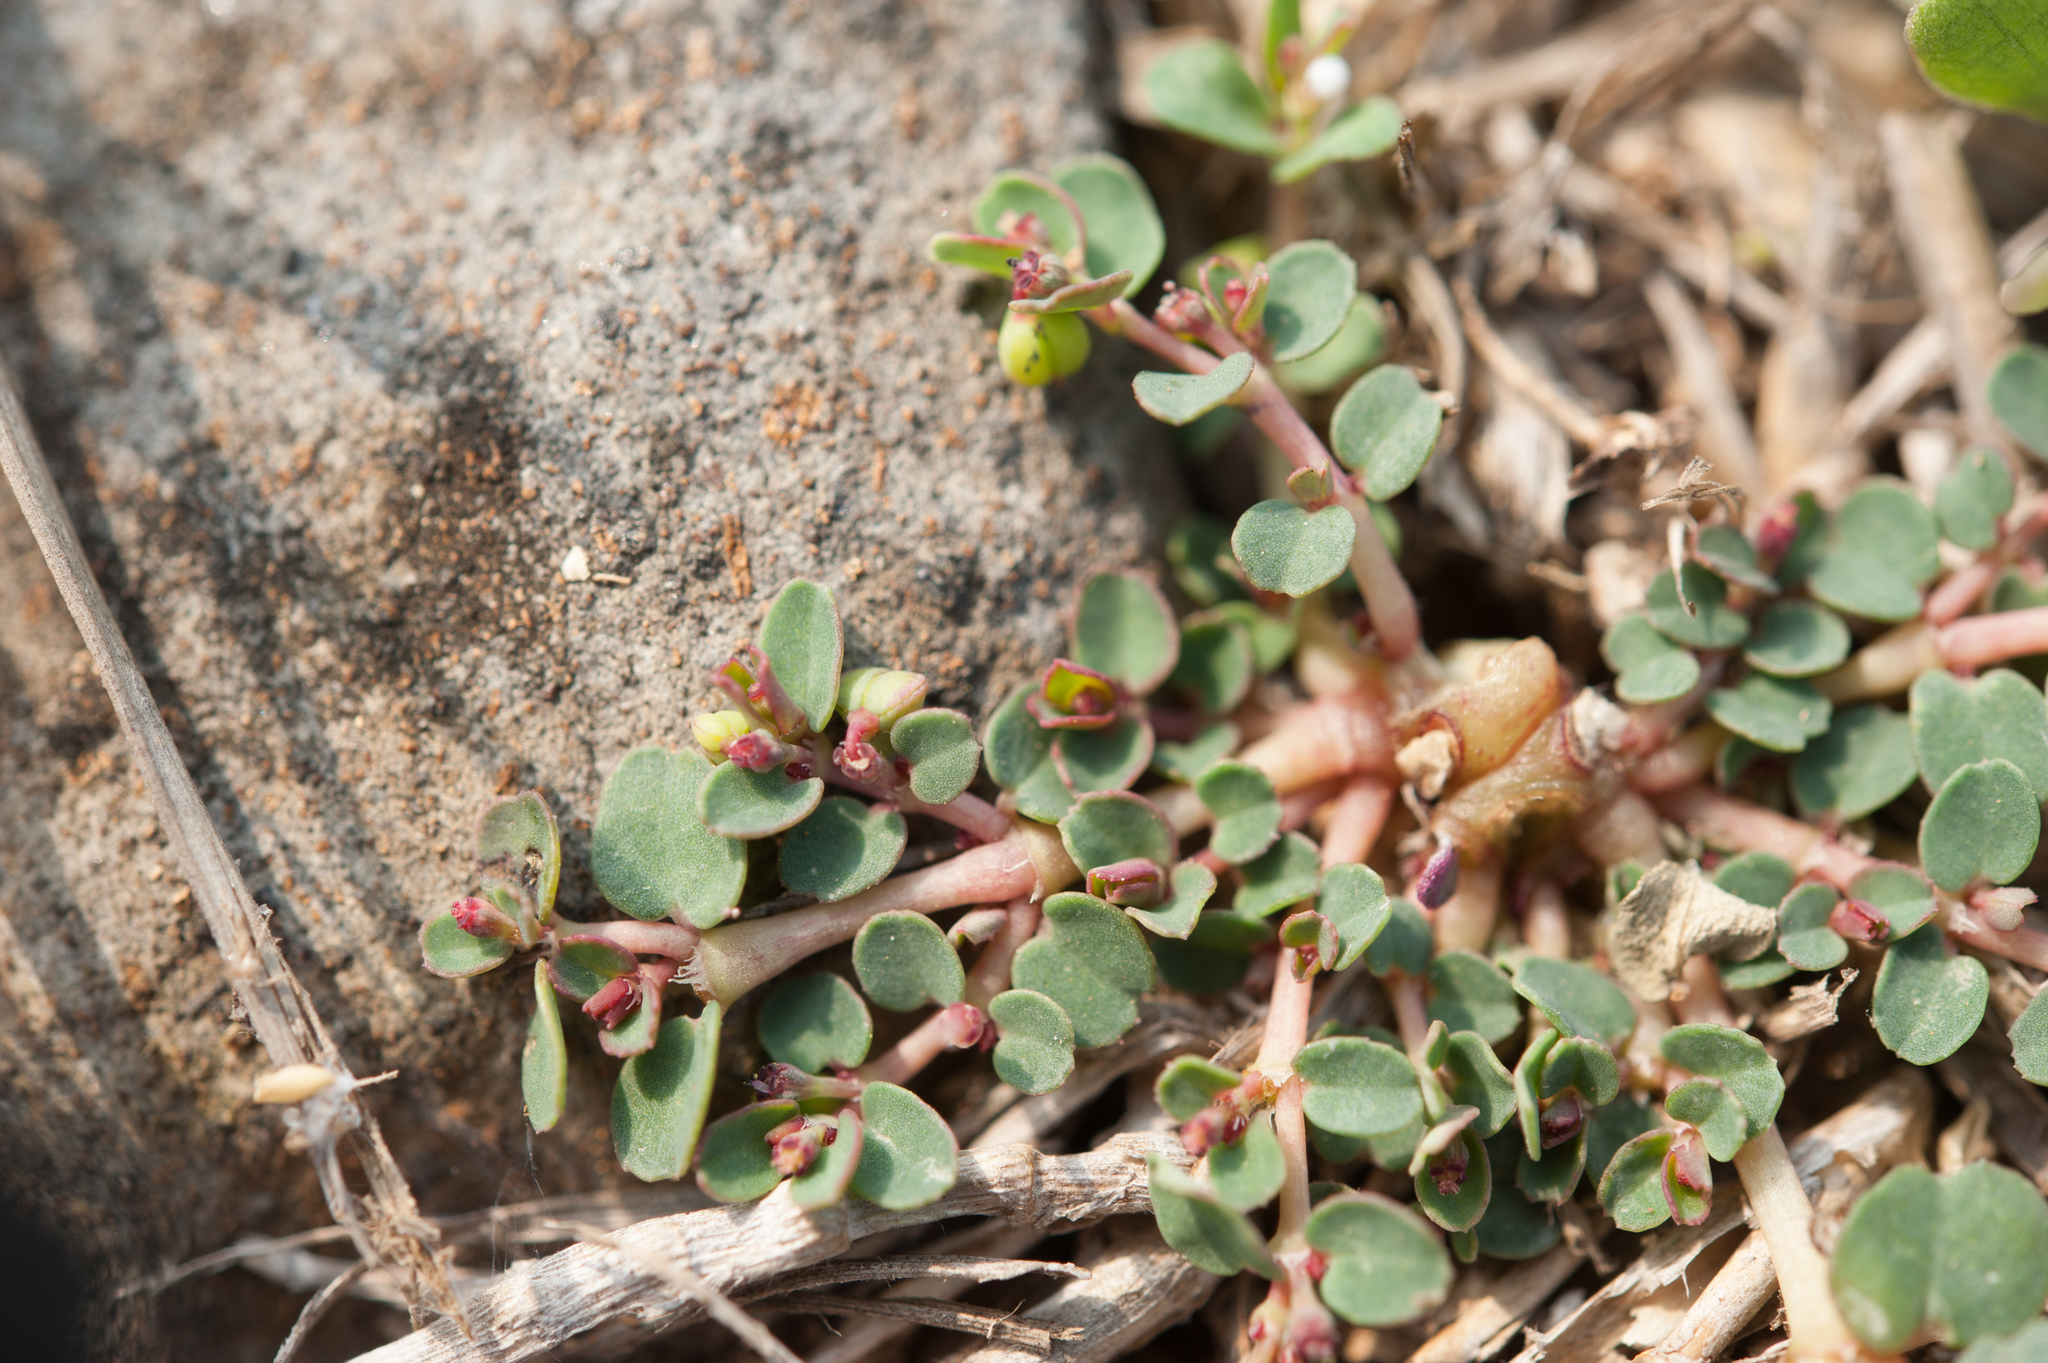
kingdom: Plantae
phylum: Tracheophyta
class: Magnoliopsida
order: Malpighiales
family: Euphorbiaceae
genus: Euphorbia
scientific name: Euphorbia taihsiensis
